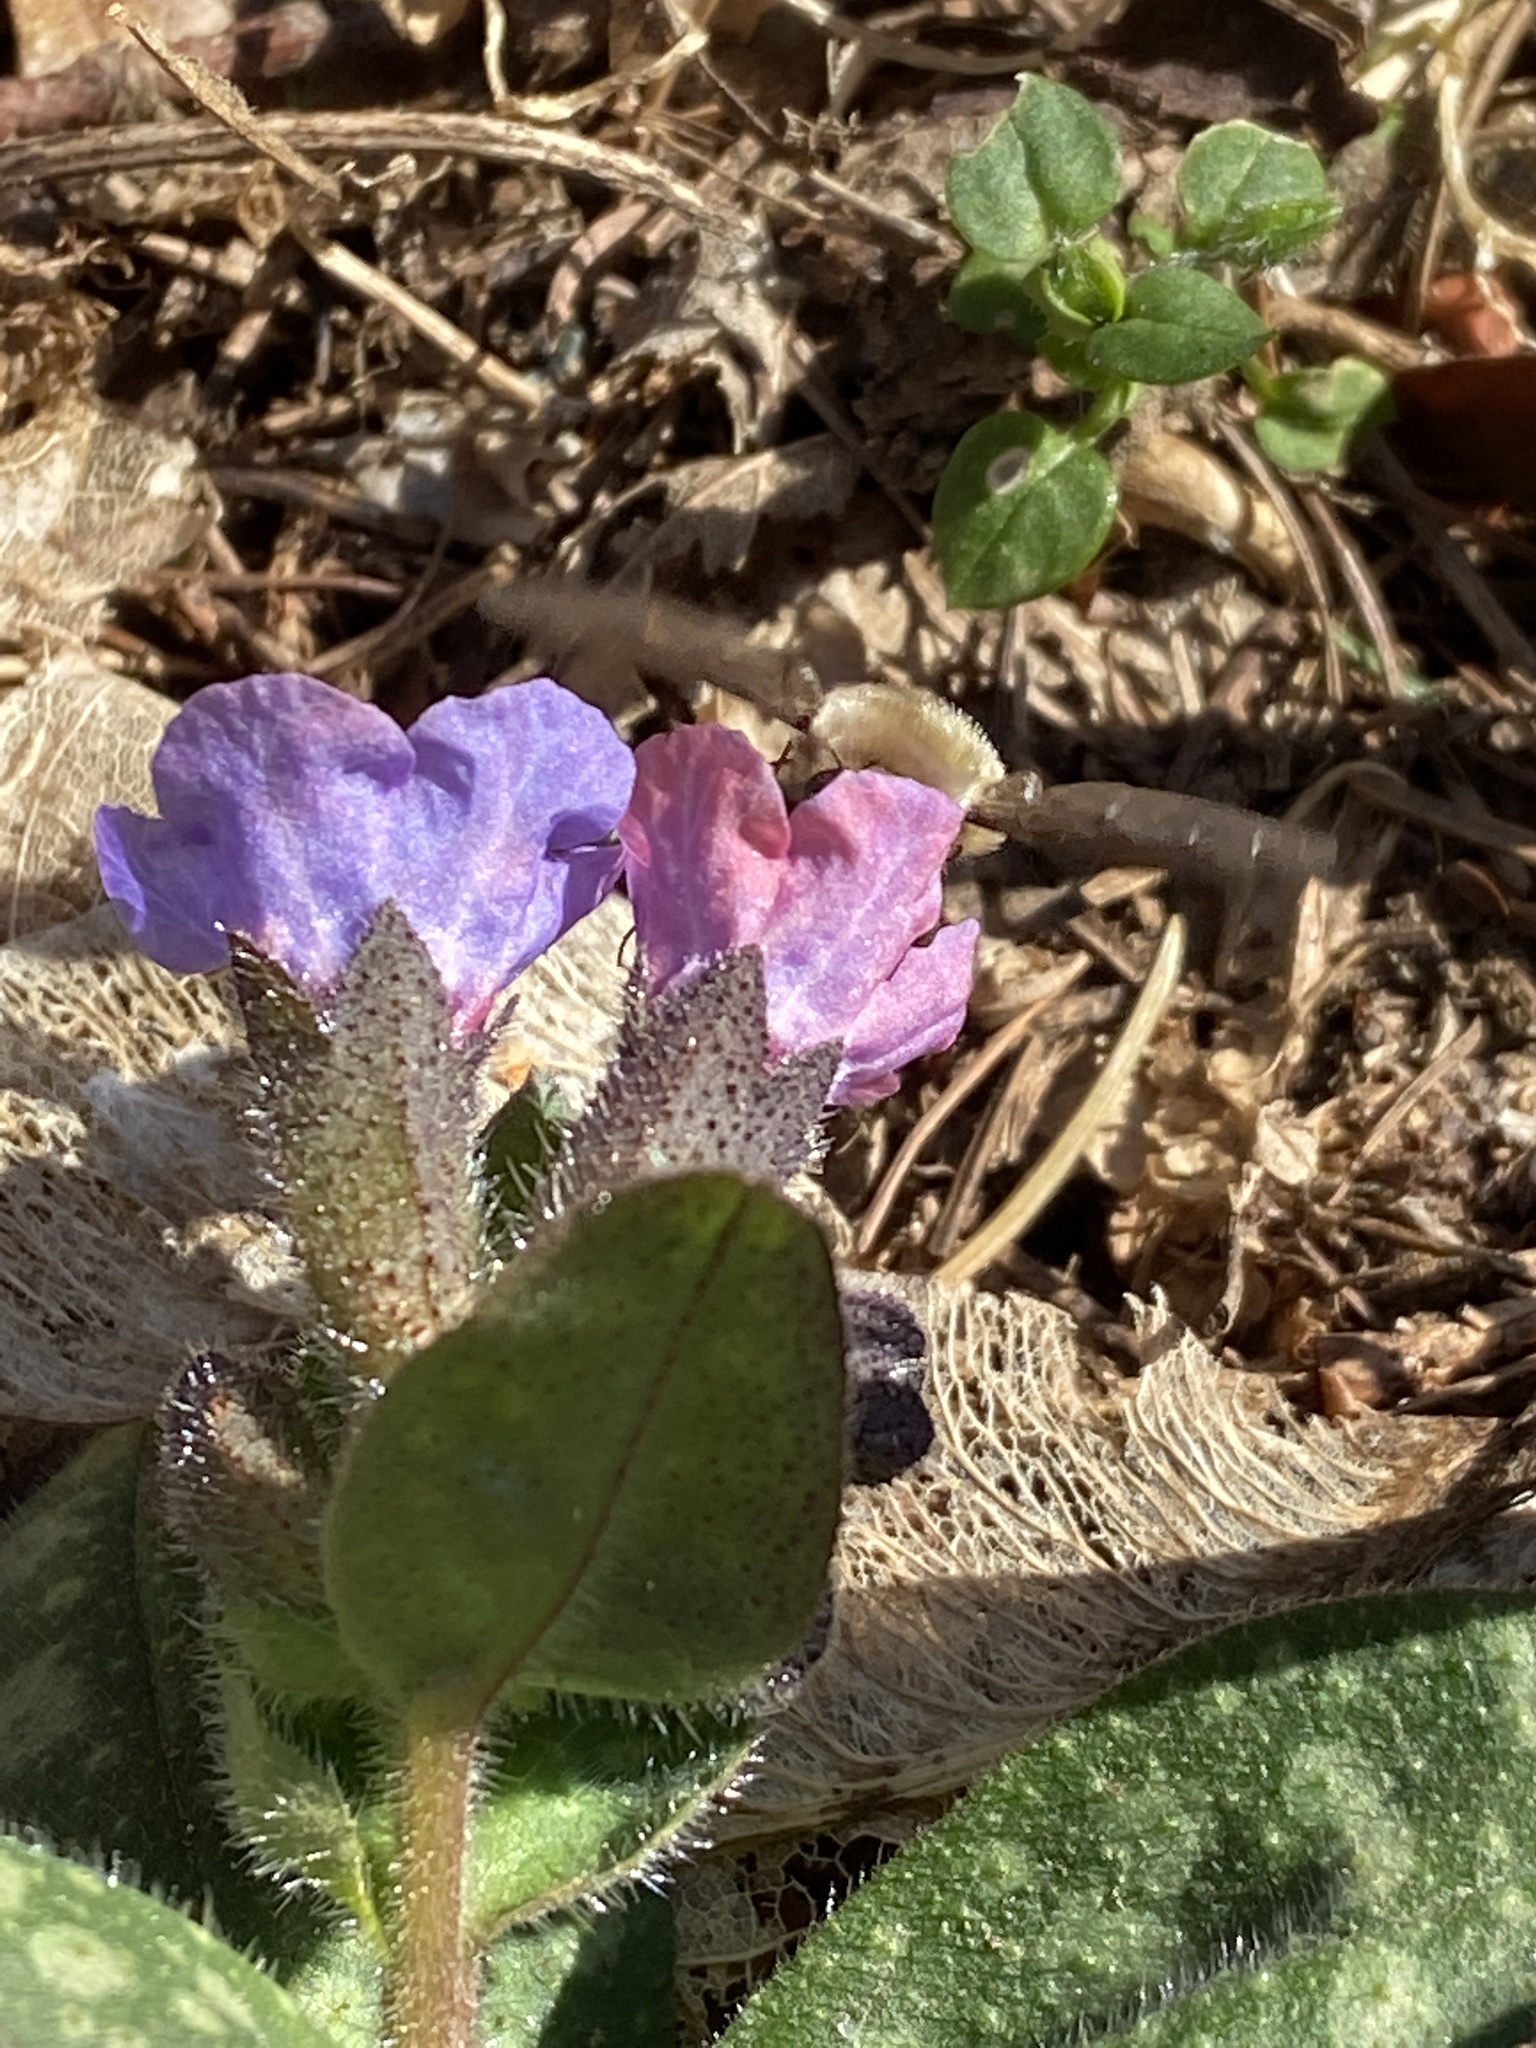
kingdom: Plantae
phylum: Tracheophyta
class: Magnoliopsida
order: Boraginales
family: Boraginaceae
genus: Pulmonaria
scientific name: Pulmonaria officinalis
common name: Lungwort
